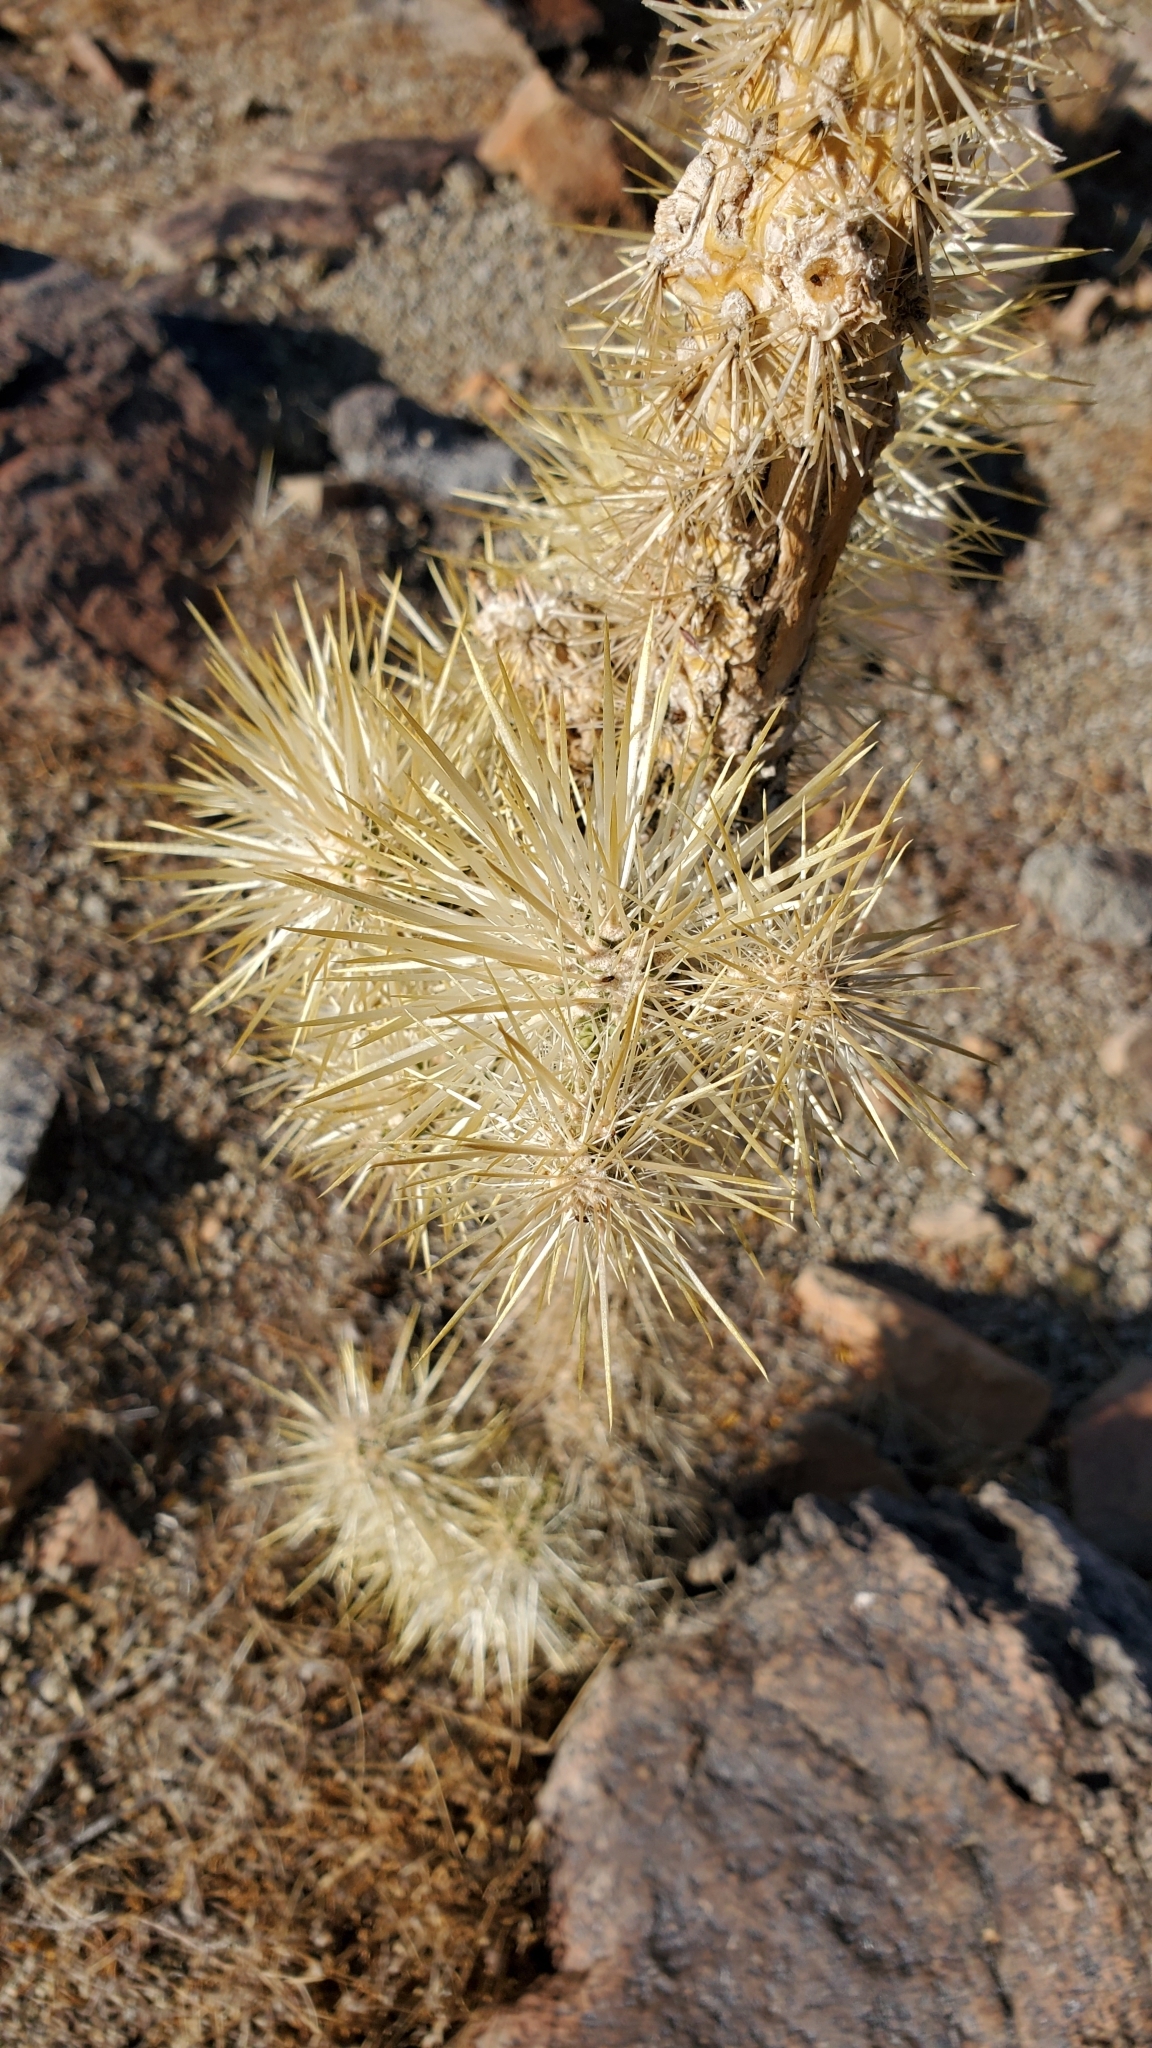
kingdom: Plantae
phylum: Tracheophyta
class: Magnoliopsida
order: Caryophyllales
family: Cactaceae
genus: Cylindropuntia
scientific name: Cylindropuntia echinocarpa
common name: Ground cholla
